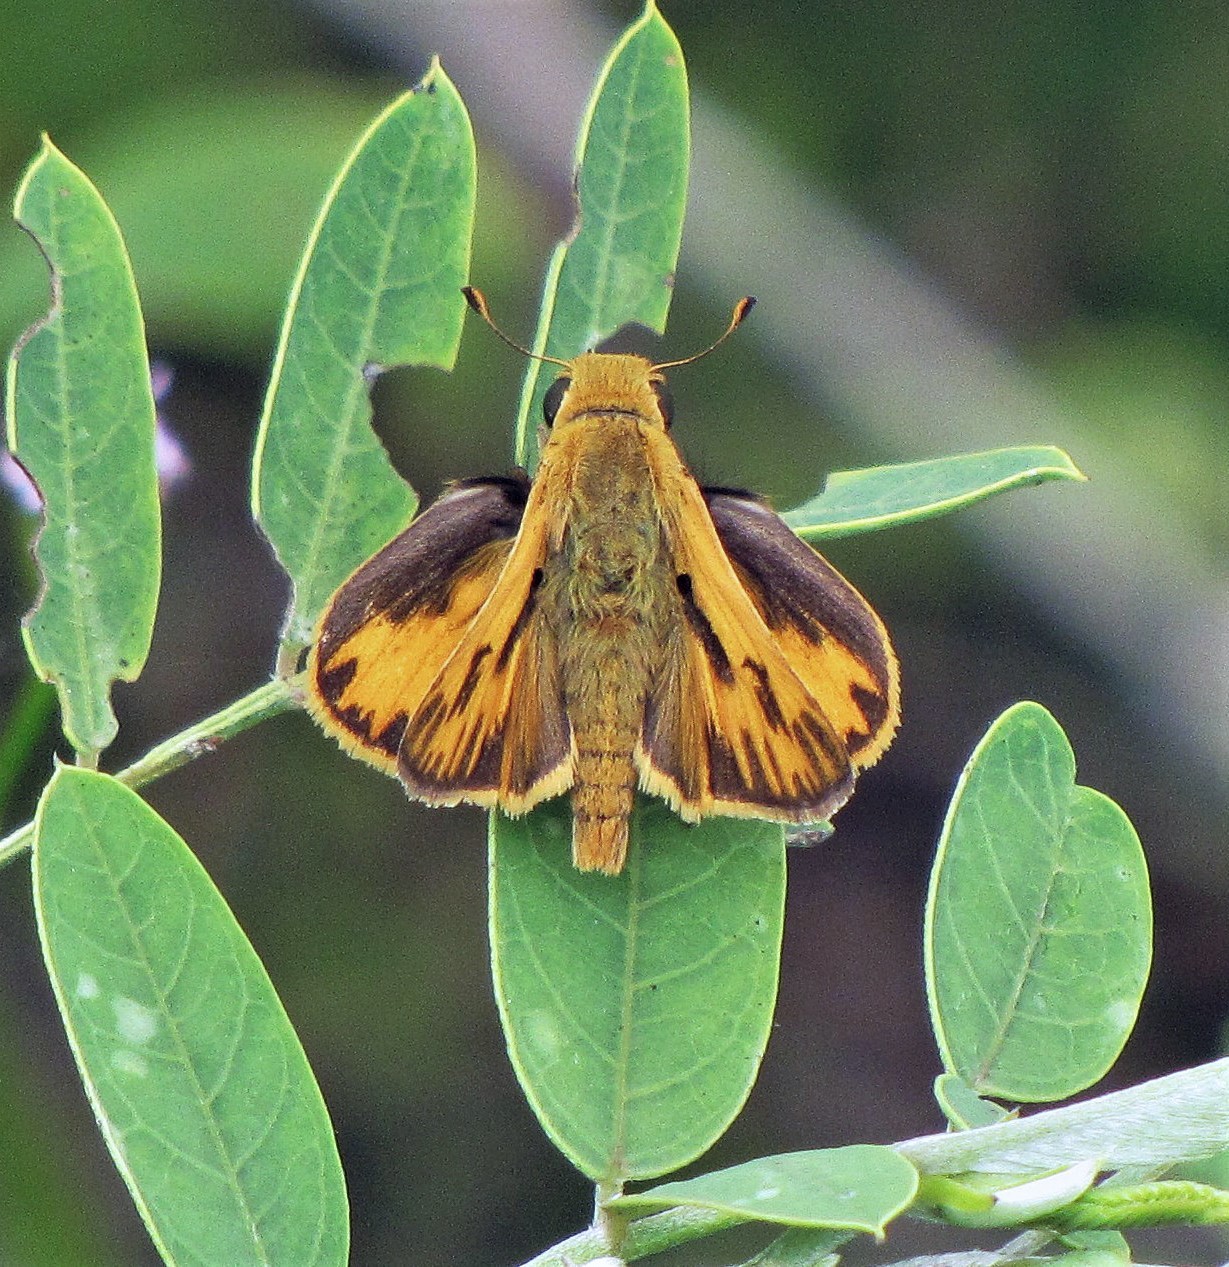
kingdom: Animalia
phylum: Arthropoda
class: Insecta
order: Lepidoptera
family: Hesperiidae
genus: Hylephila
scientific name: Hylephila phyleus
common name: Fiery skipper
